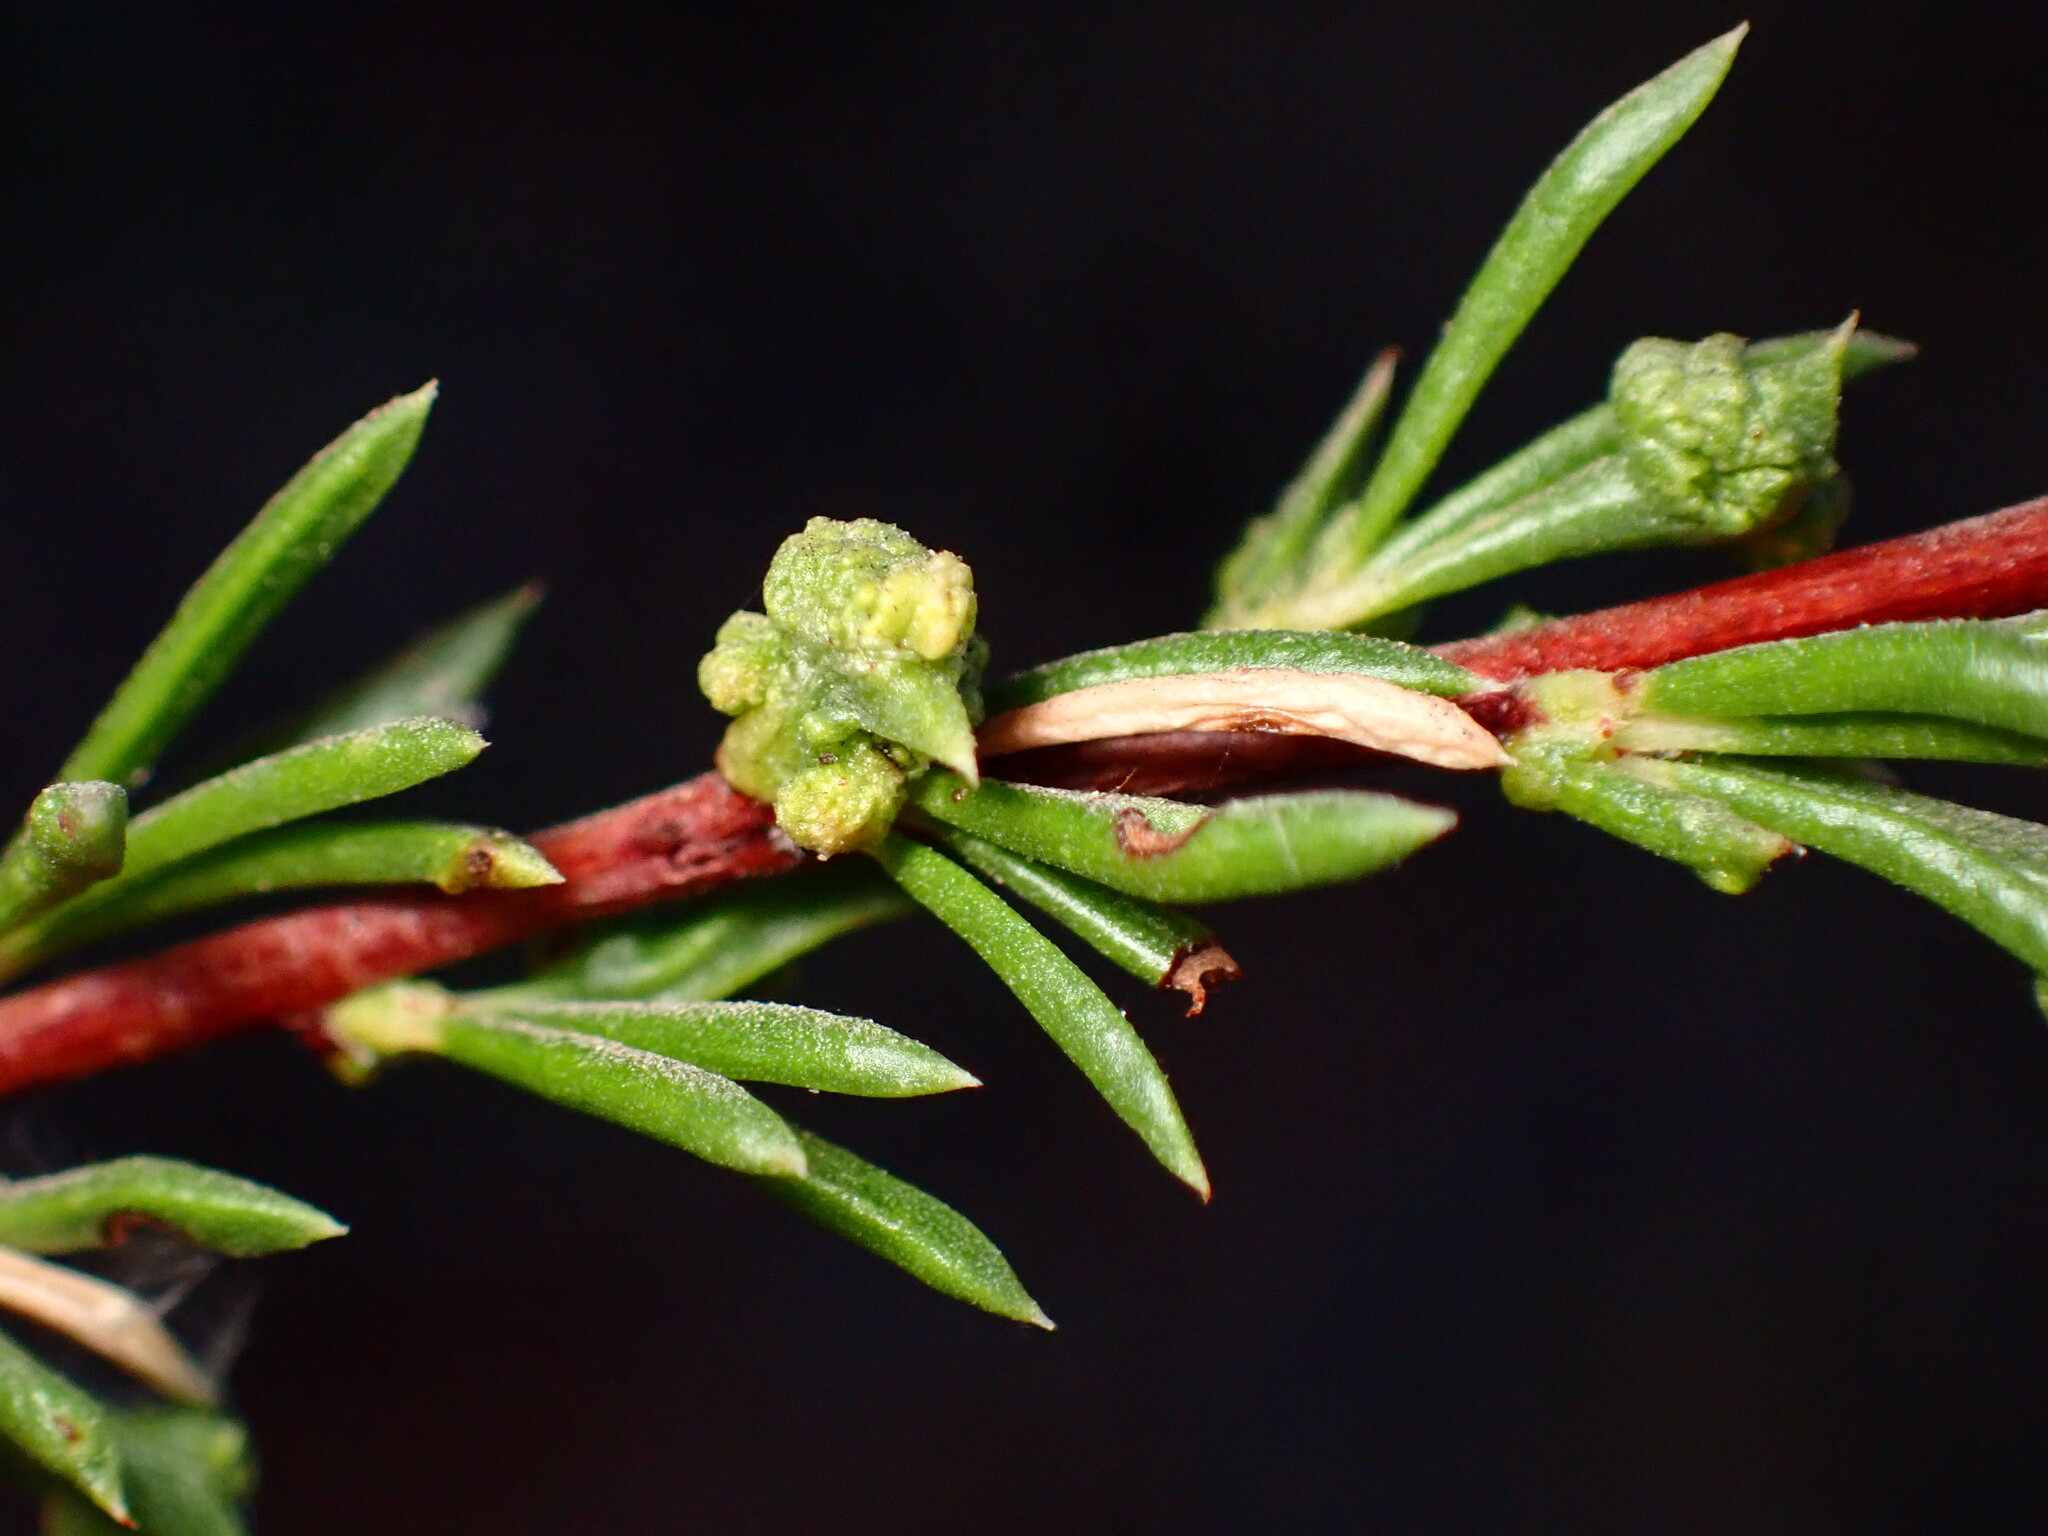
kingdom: Animalia
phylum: Arthropoda
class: Arachnida
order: Trombidiformes
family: Eriophyidae
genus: Eriophyes
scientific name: Eriophyes
